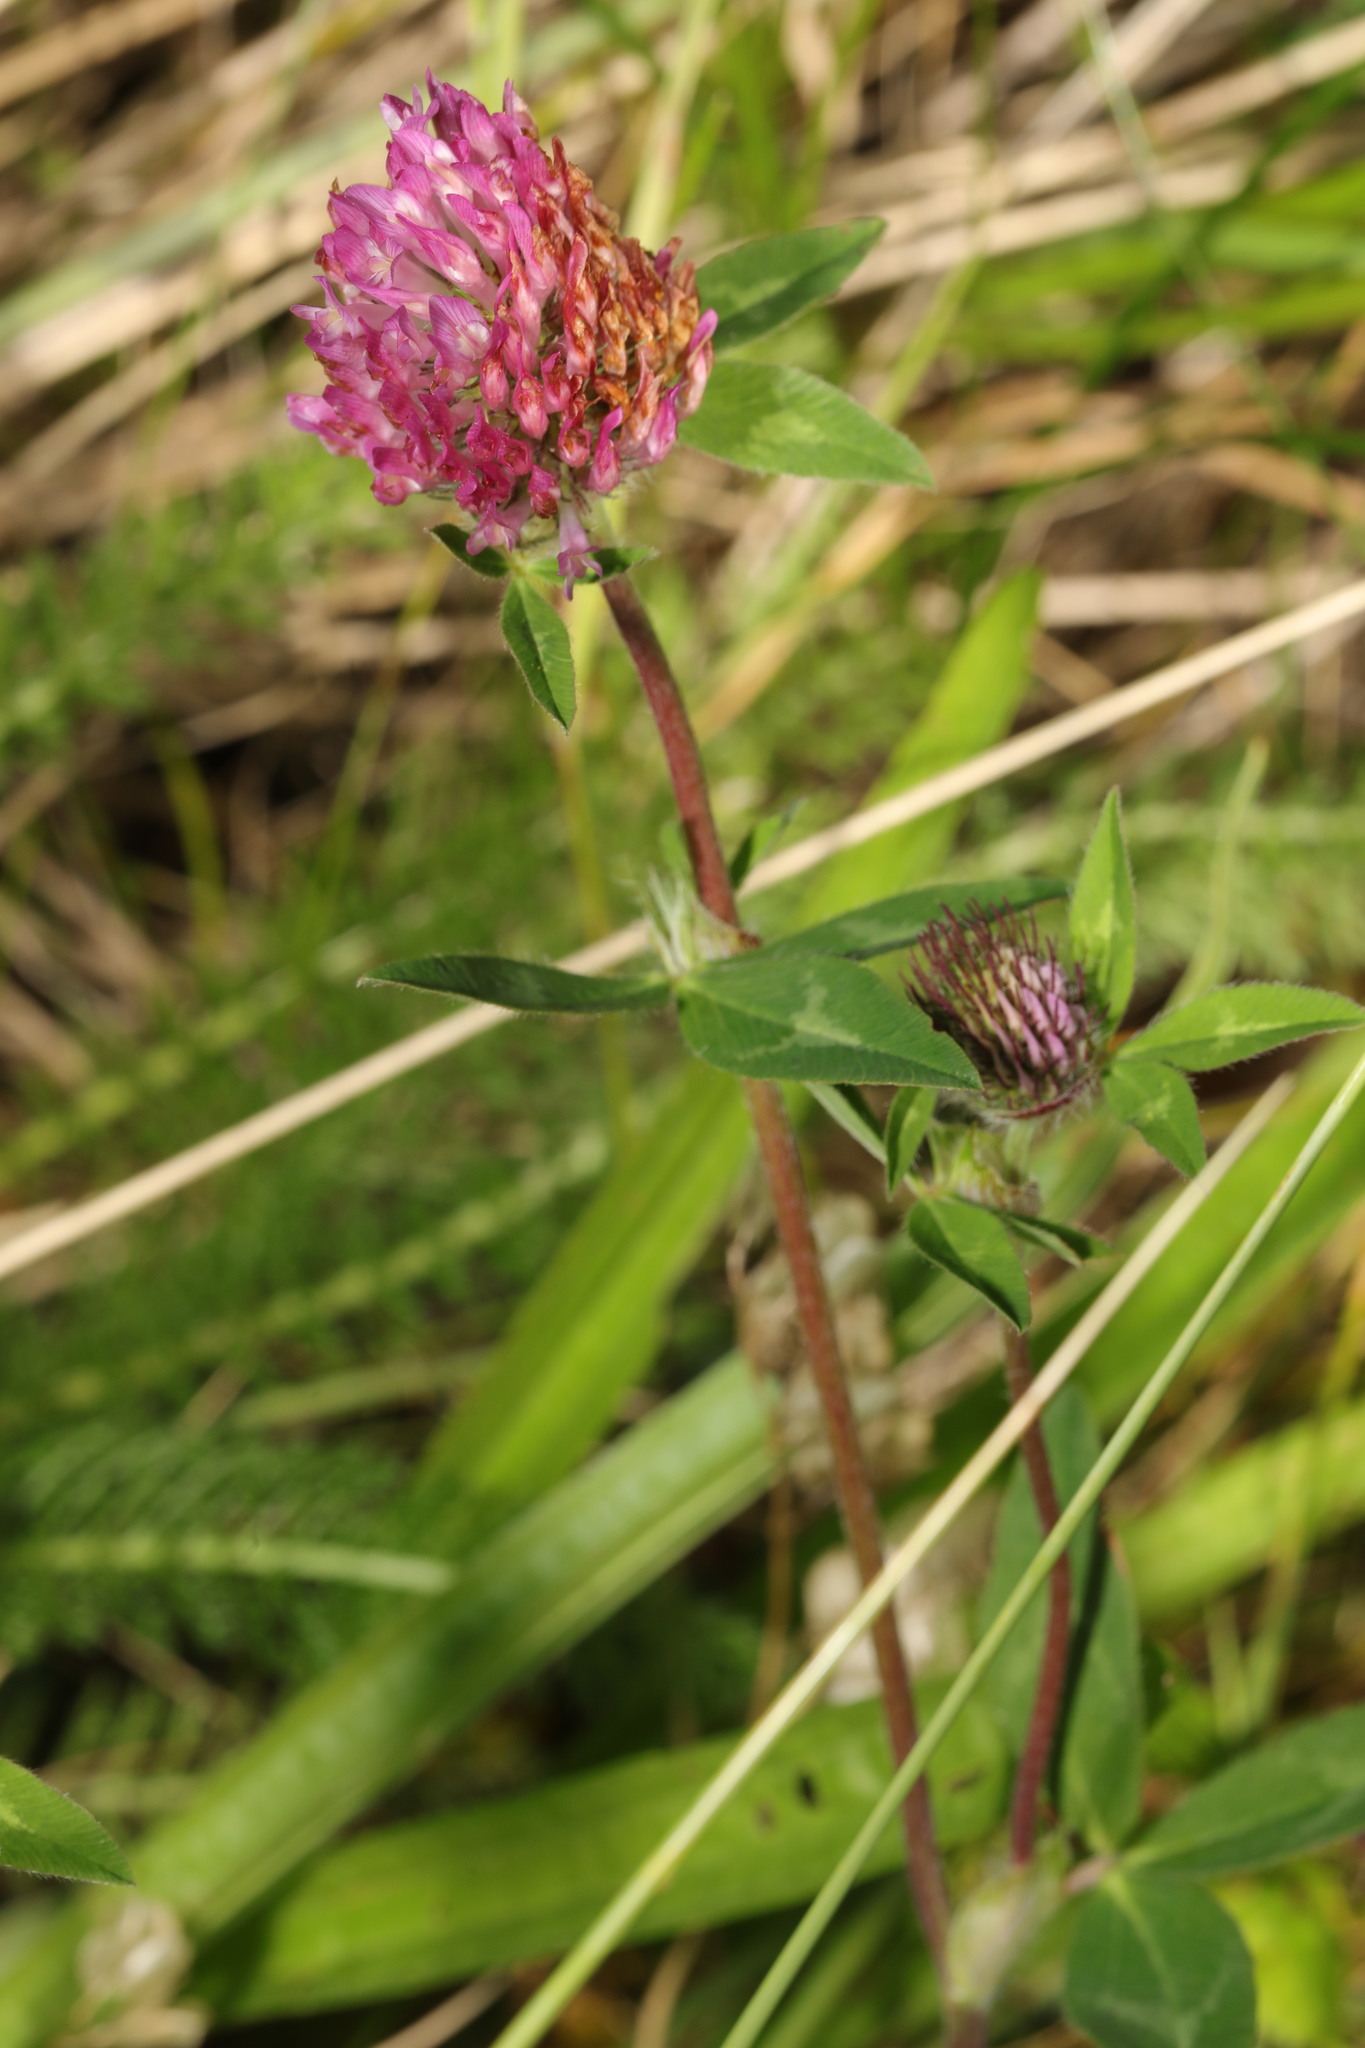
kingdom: Plantae
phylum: Tracheophyta
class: Magnoliopsida
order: Fabales
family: Fabaceae
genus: Trifolium
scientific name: Trifolium pratense
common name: Red clover
